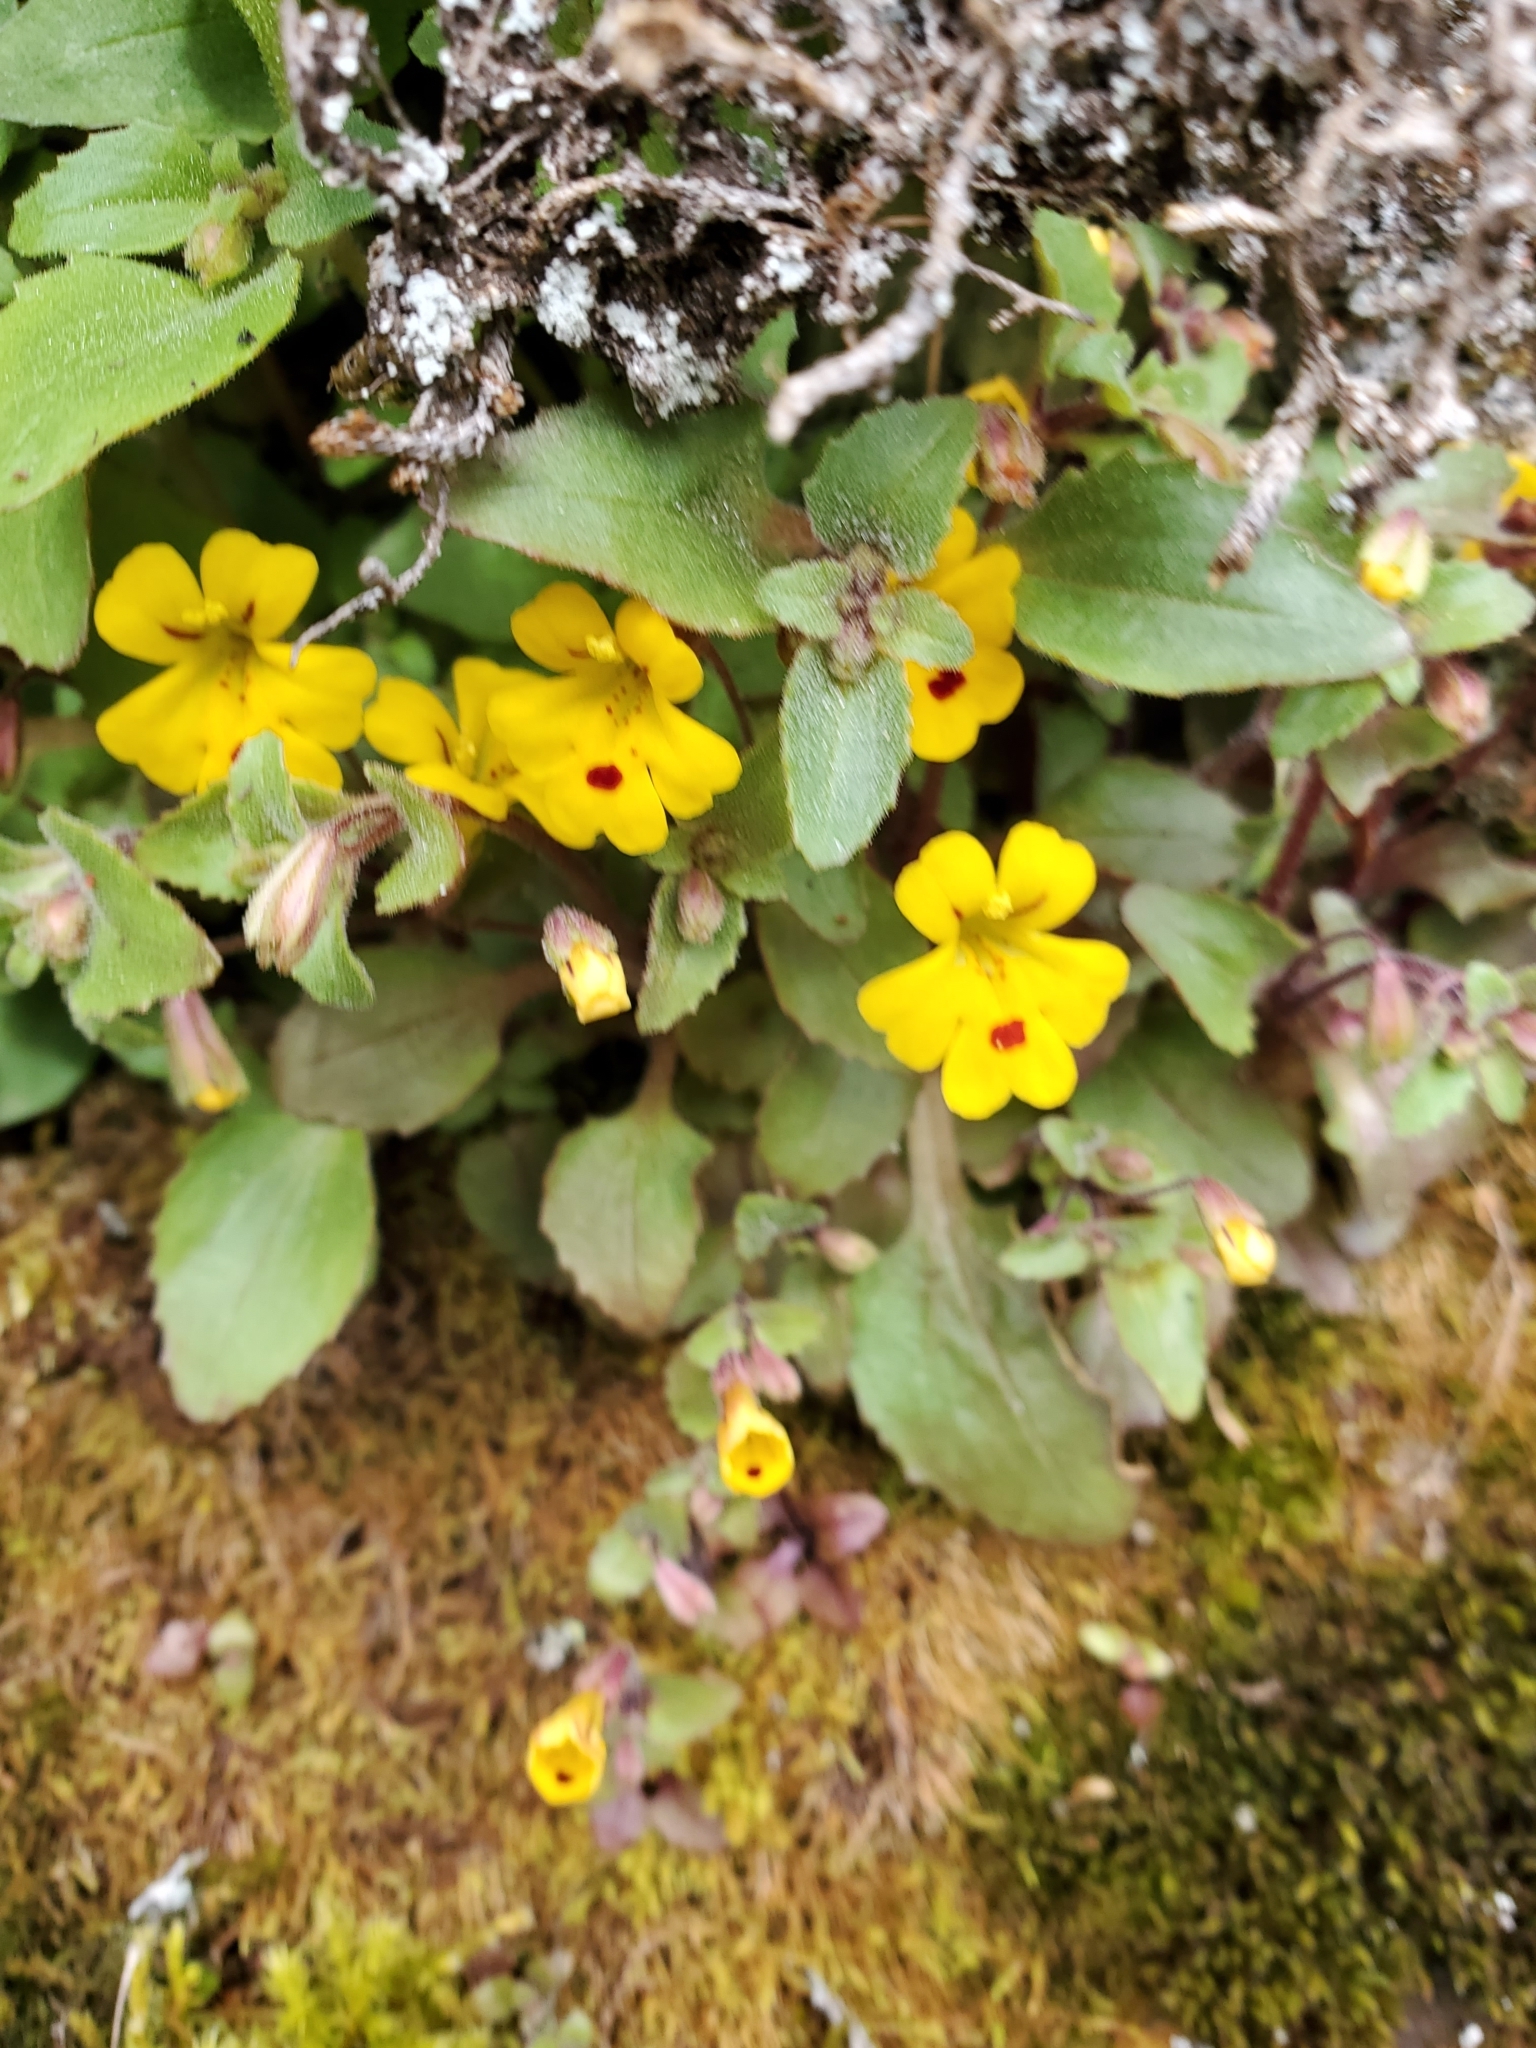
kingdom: Plantae
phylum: Tracheophyta
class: Magnoliopsida
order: Lamiales
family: Phrymaceae
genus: Erythranthe
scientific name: Erythranthe alsinoides
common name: Chickweed monkeyflower
